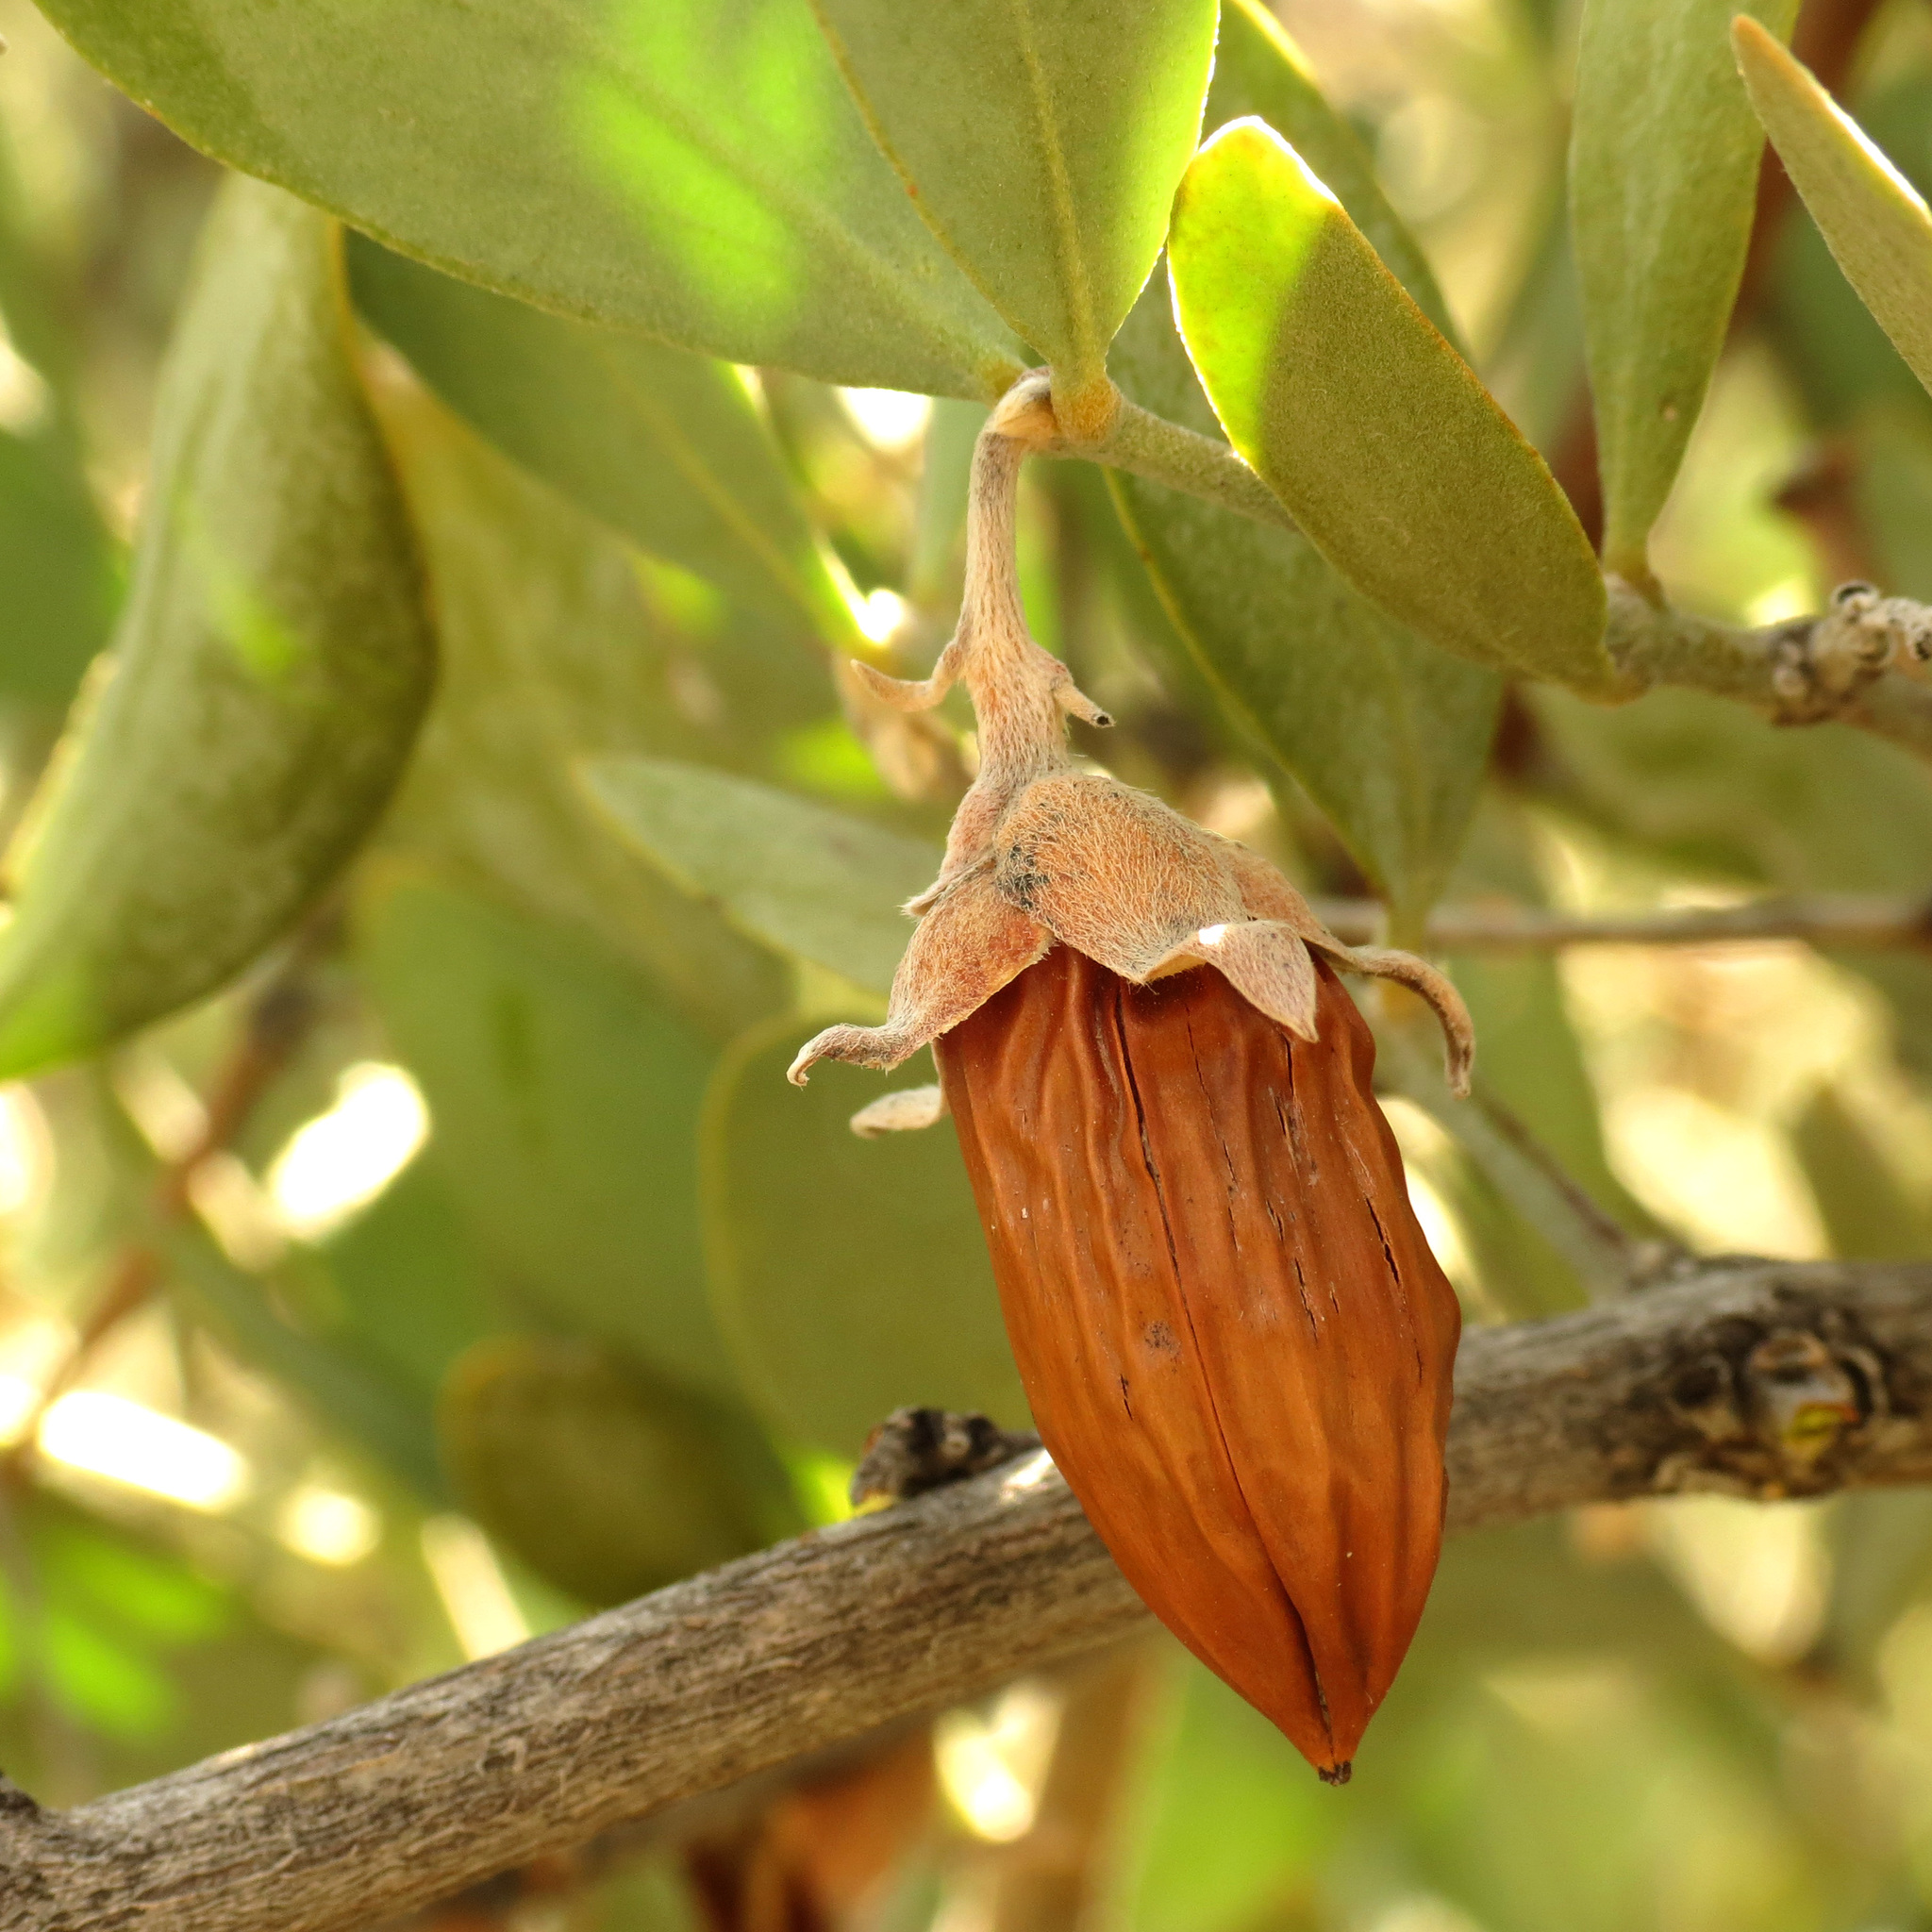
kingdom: Plantae
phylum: Tracheophyta
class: Magnoliopsida
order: Caryophyllales
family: Simmondsiaceae
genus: Simmondsia
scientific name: Simmondsia chinensis
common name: Jojoba
